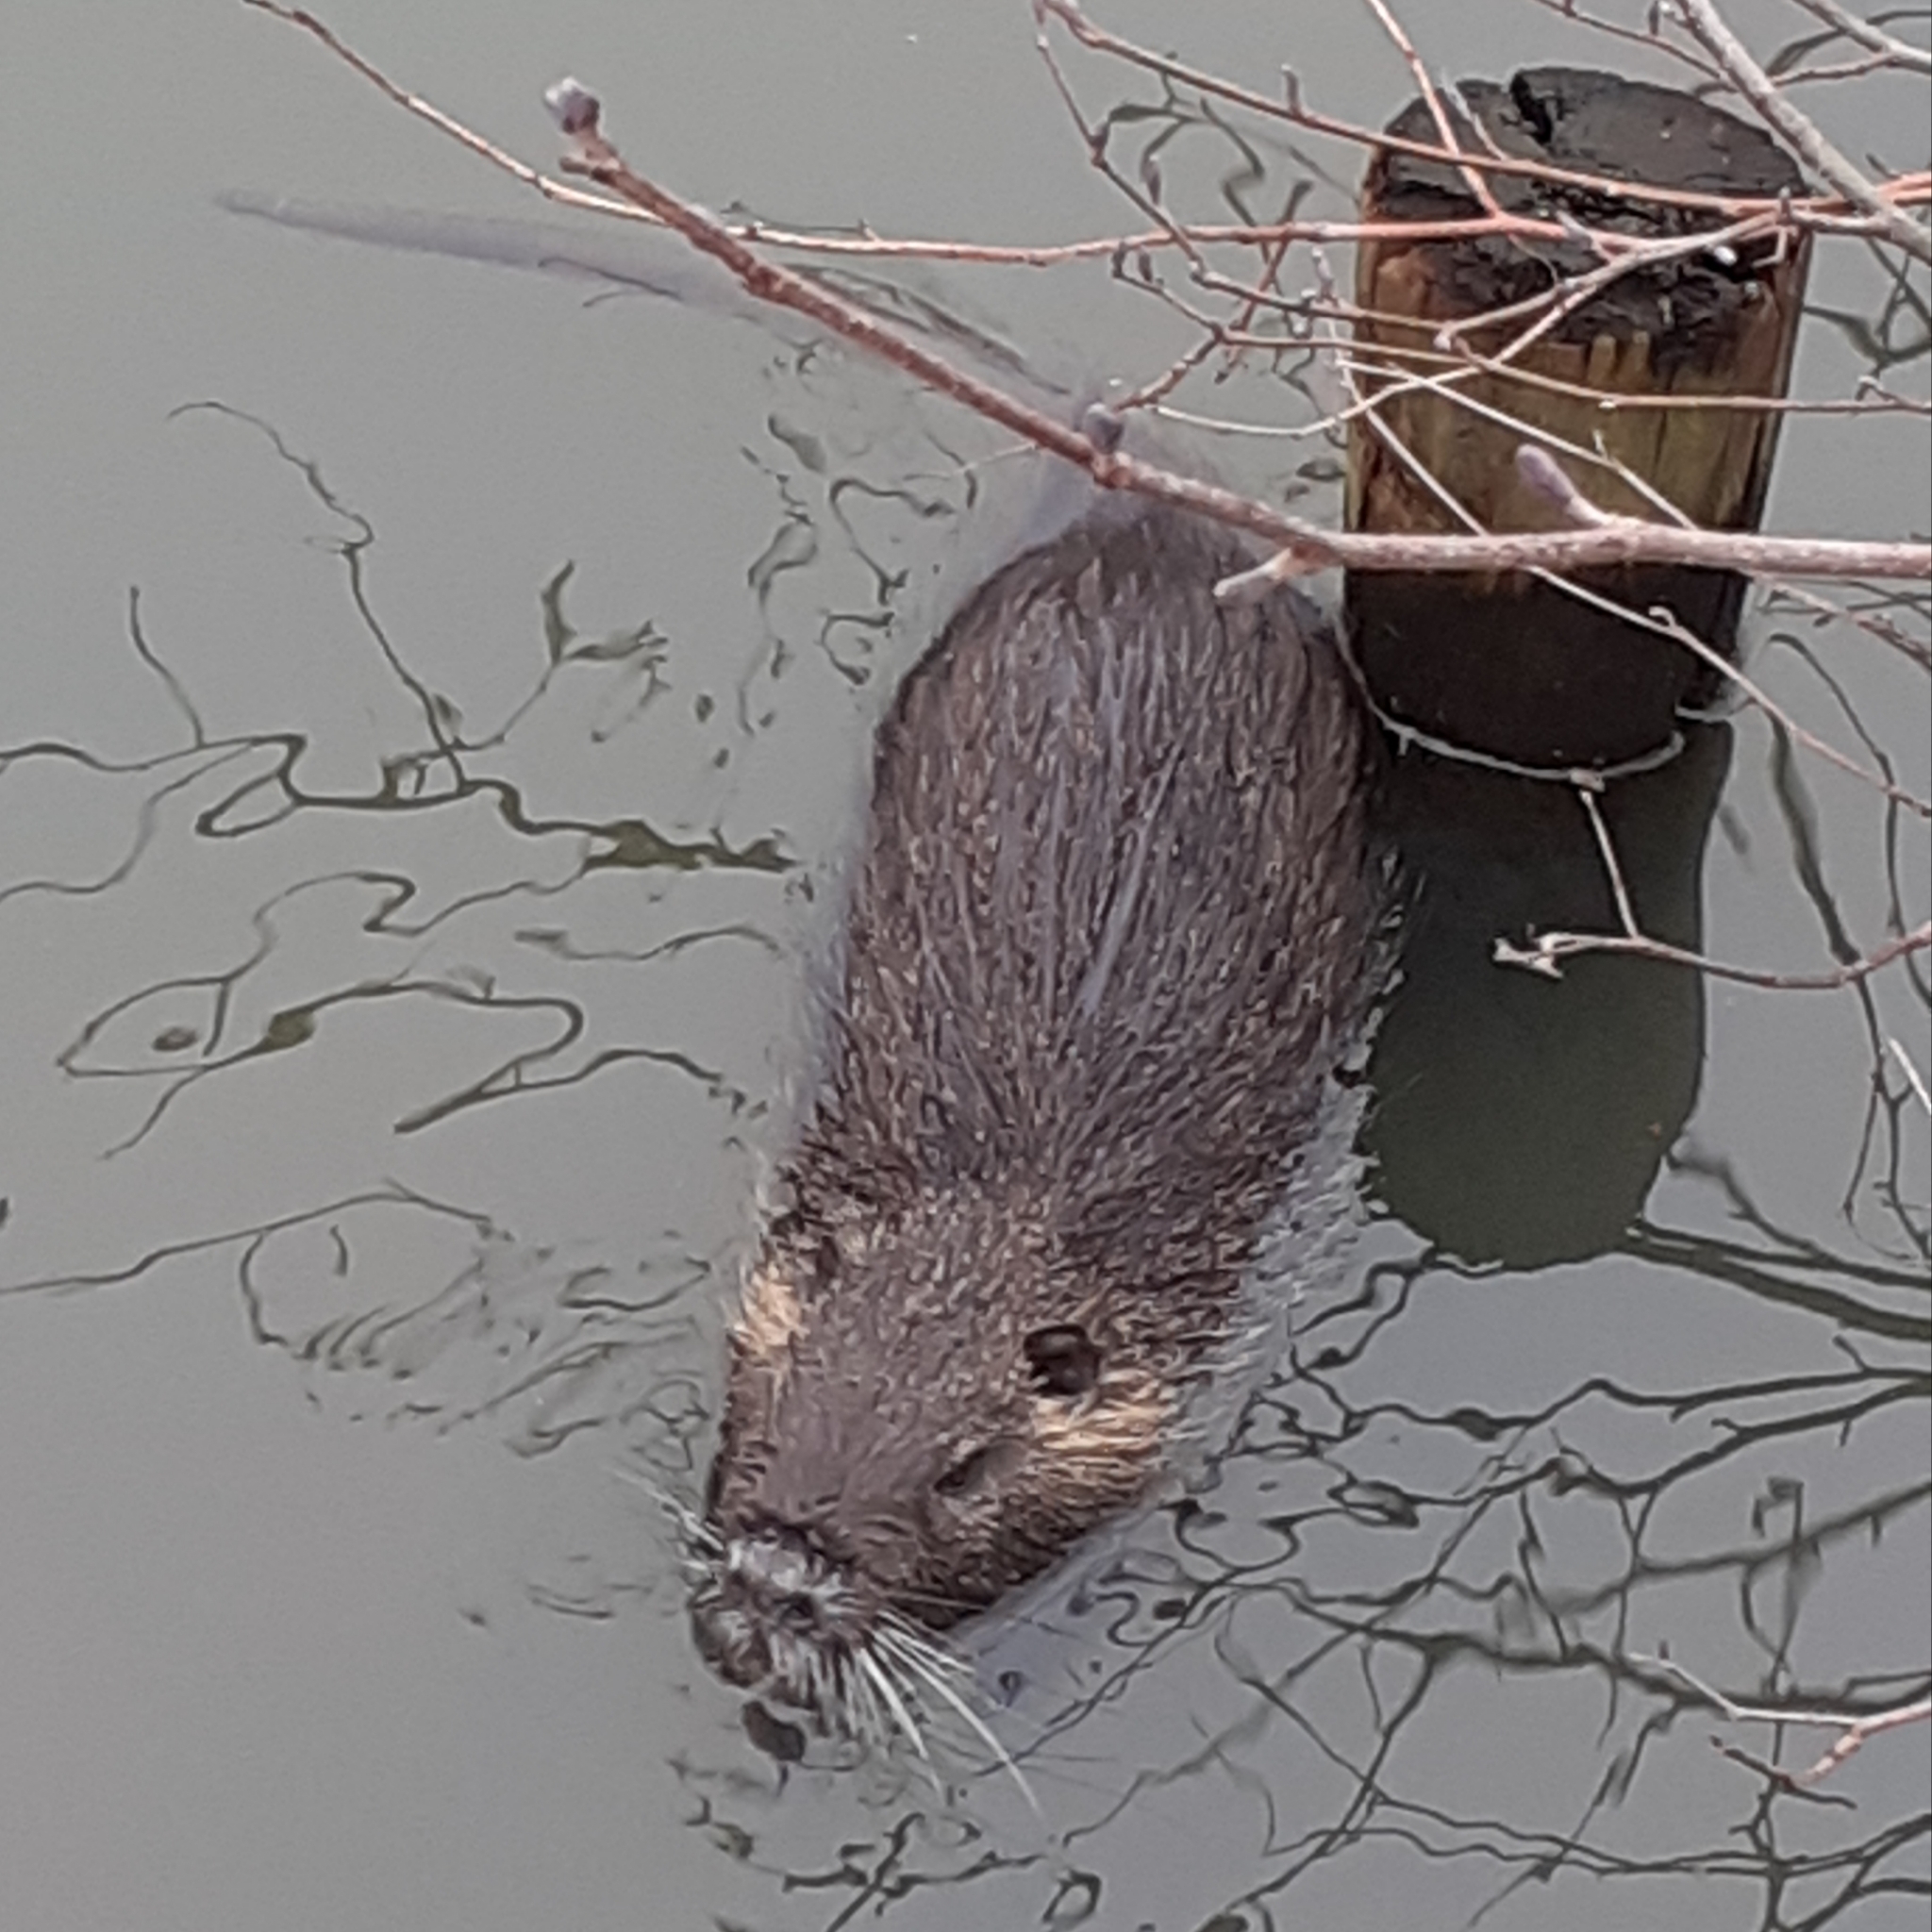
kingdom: Animalia
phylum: Chordata
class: Mammalia
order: Rodentia
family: Myocastoridae
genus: Myocastor
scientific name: Myocastor coypus
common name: Coypu
